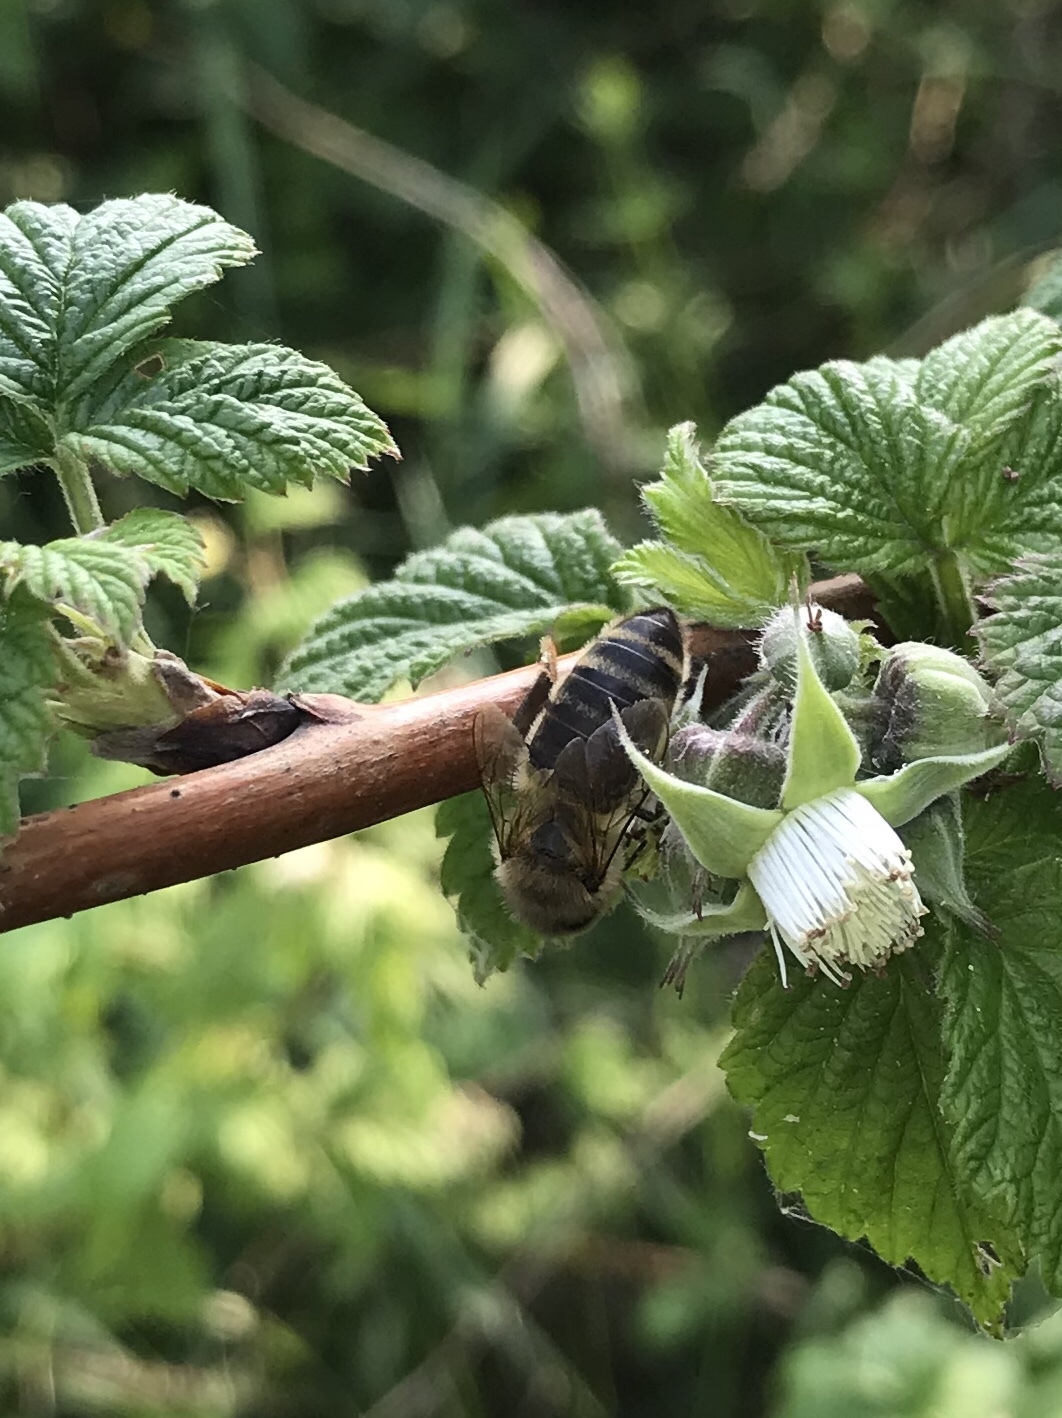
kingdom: Animalia
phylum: Arthropoda
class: Insecta
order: Hymenoptera
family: Apidae
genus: Apis
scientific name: Apis mellifera
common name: Honey bee
